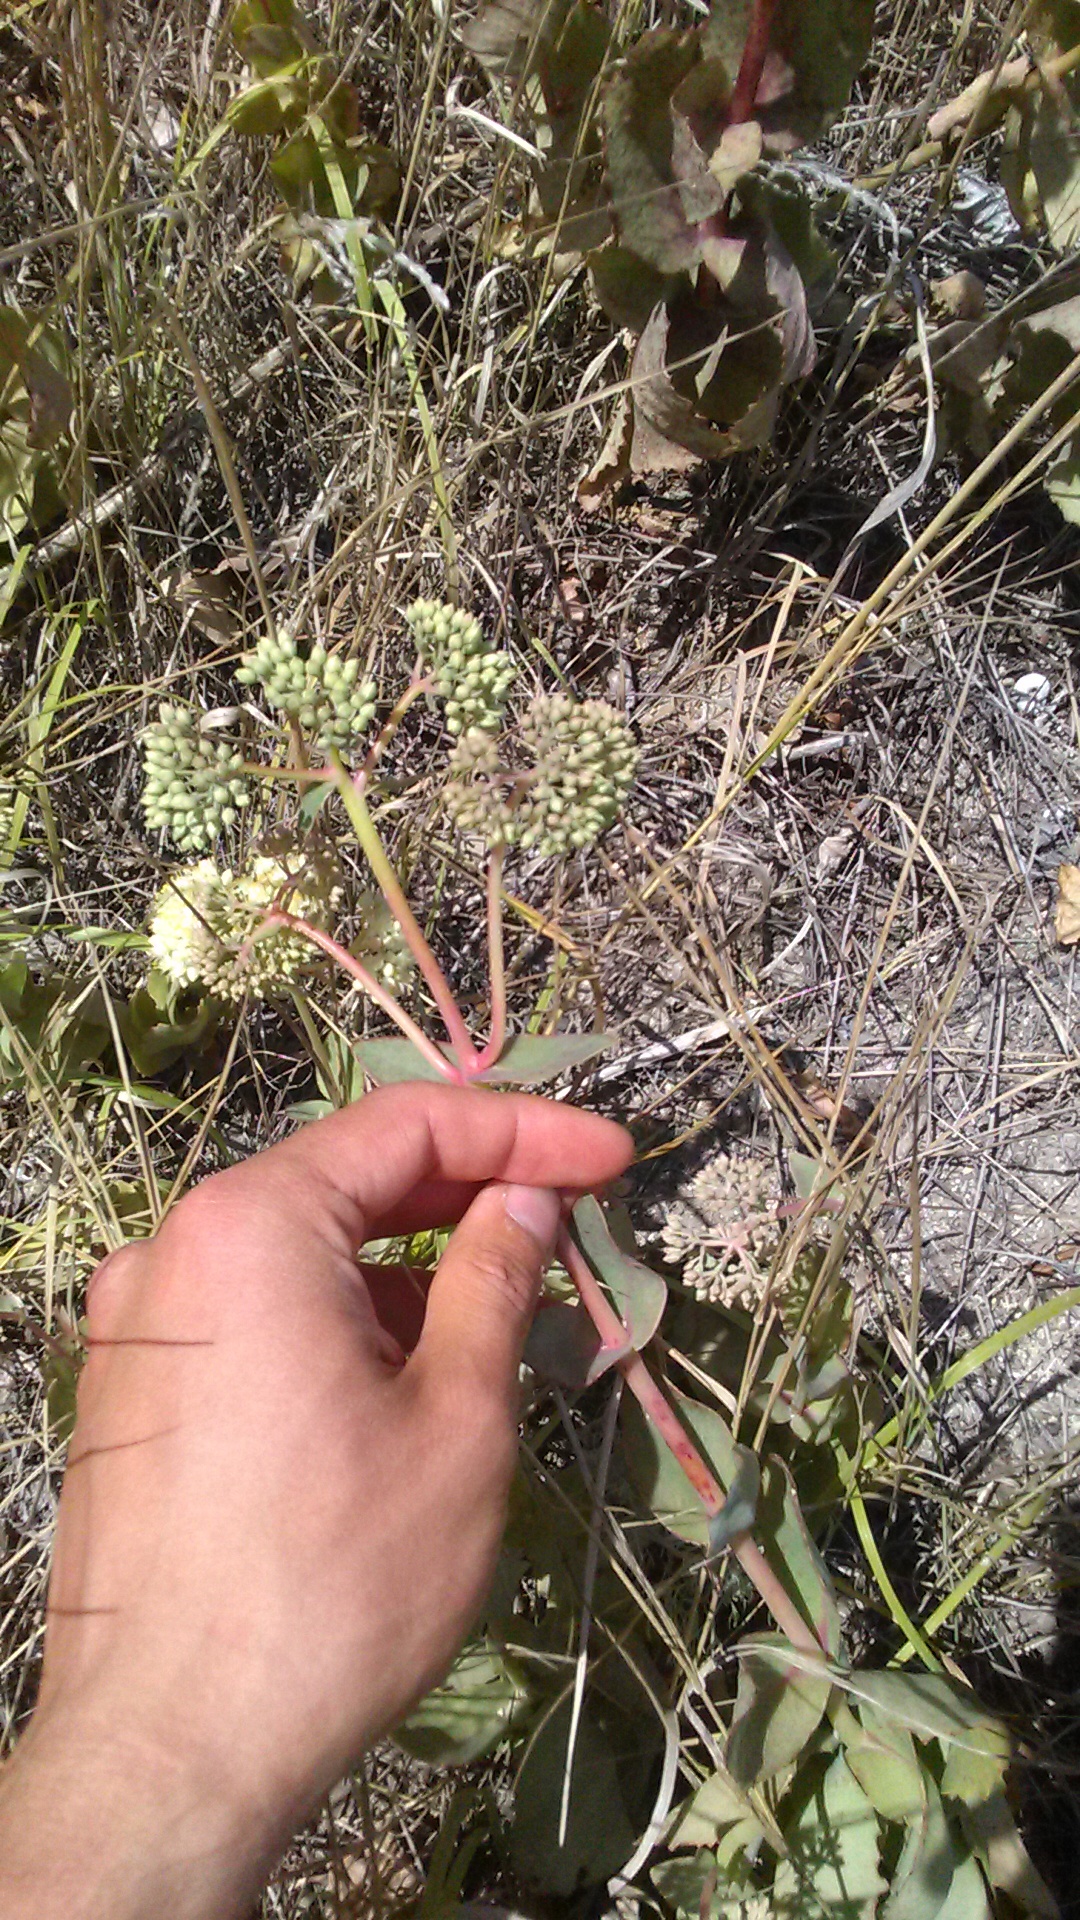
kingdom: Plantae
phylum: Tracheophyta
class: Magnoliopsida
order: Saxifragales
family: Crassulaceae
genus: Hylotelephium
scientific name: Hylotelephium maximum
